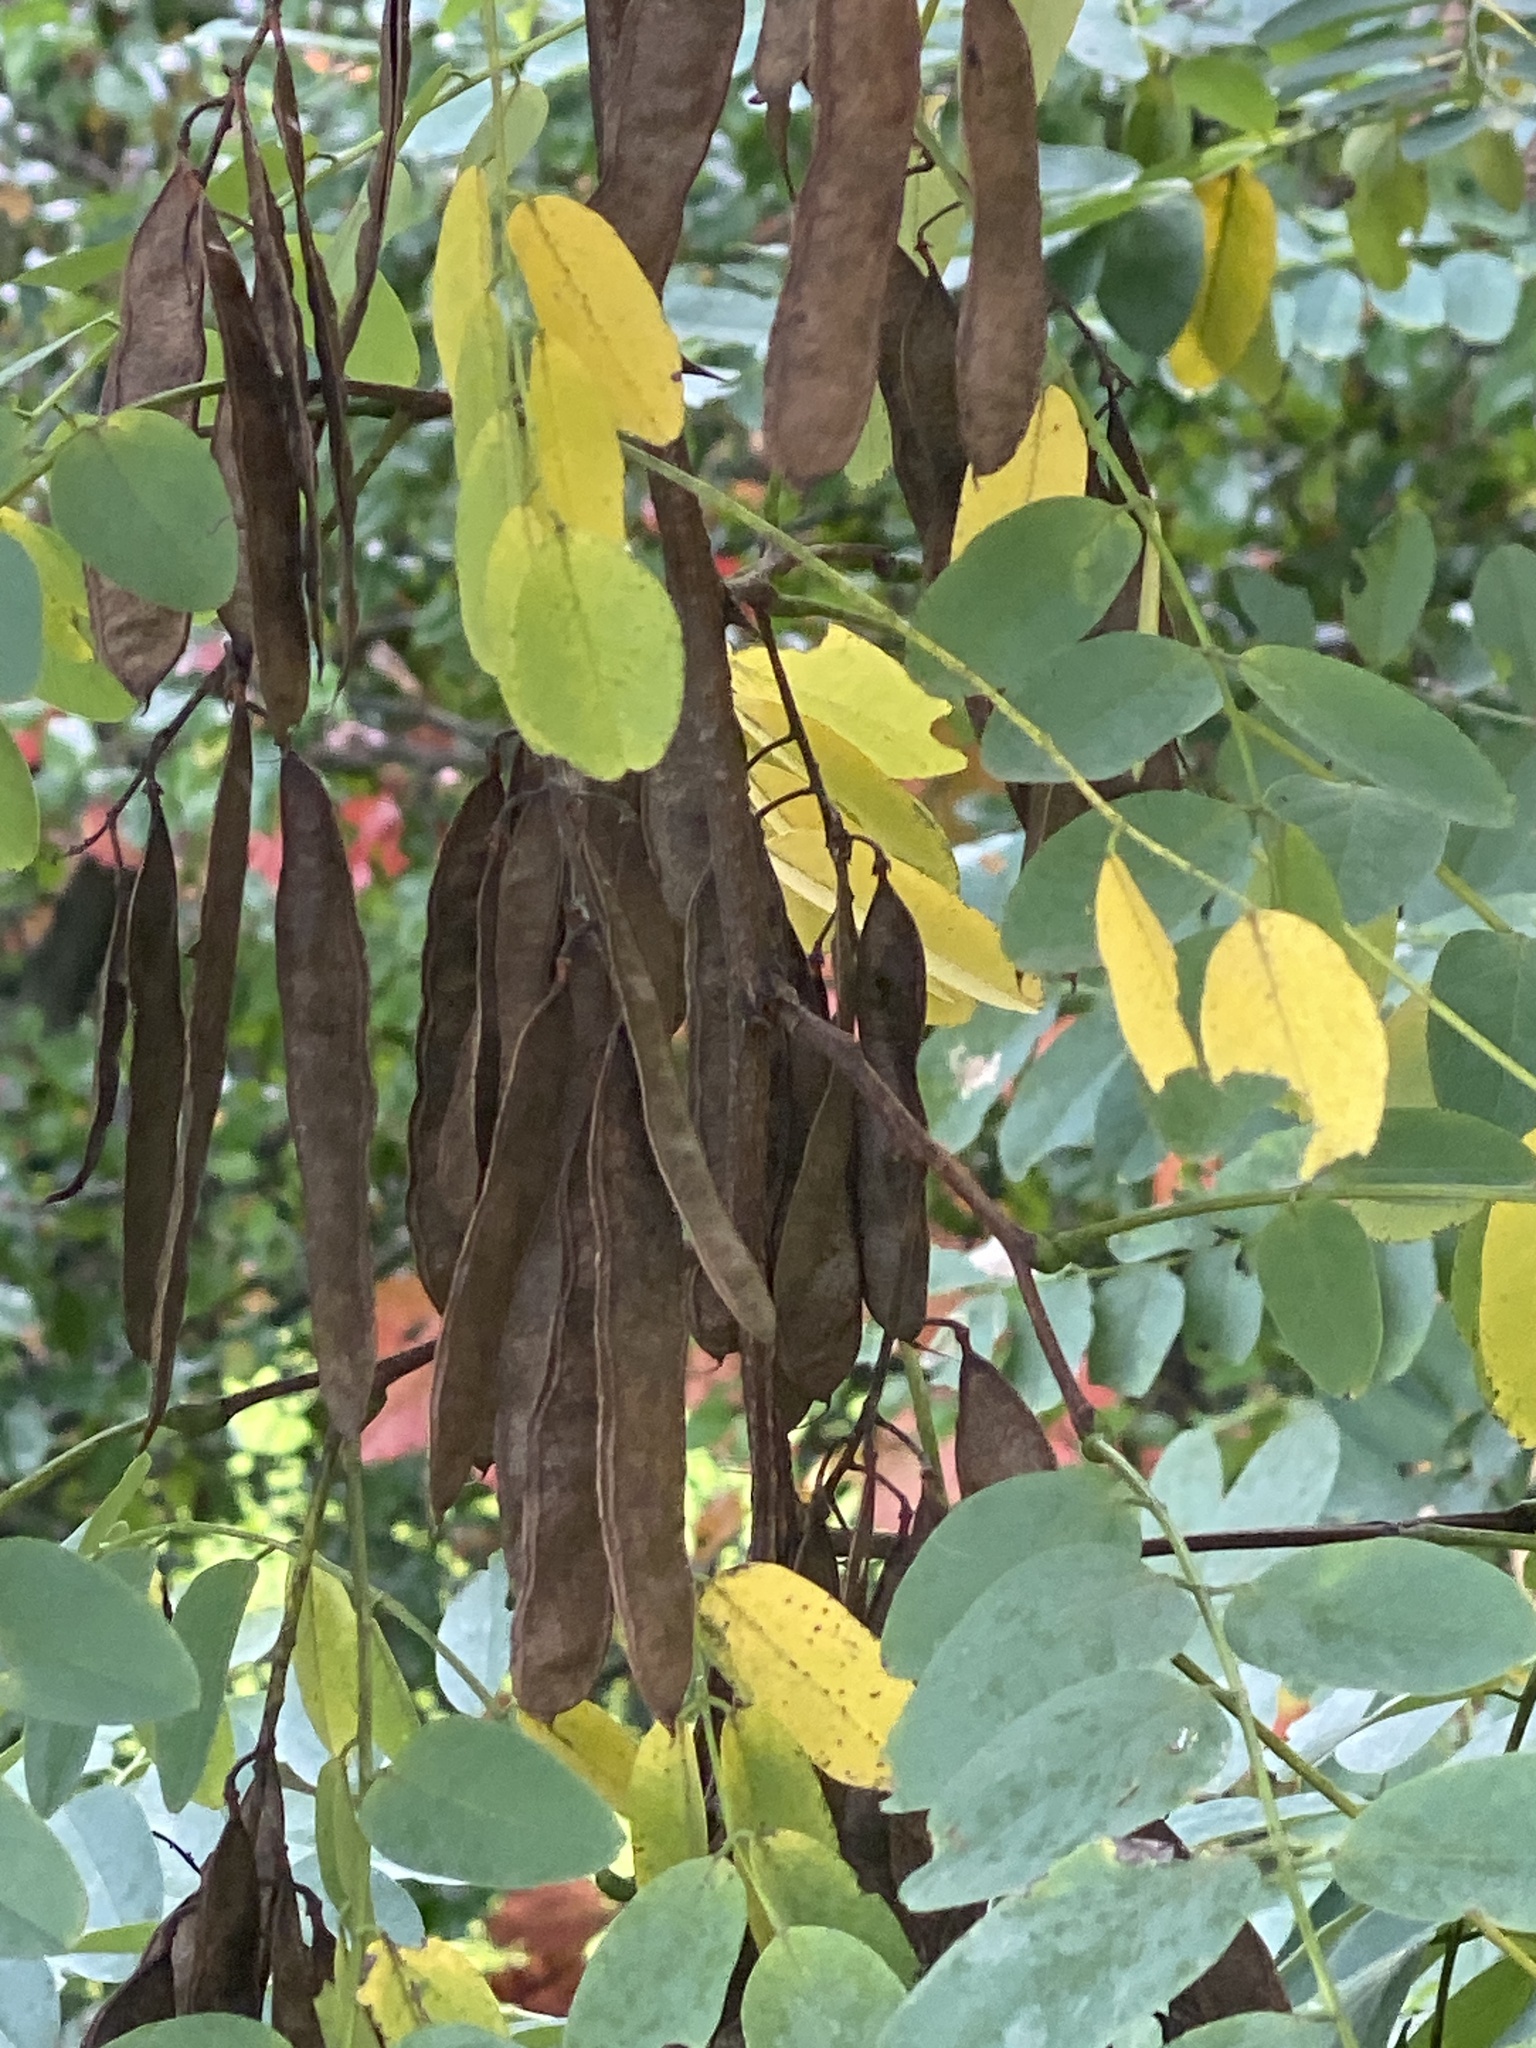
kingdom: Plantae
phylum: Tracheophyta
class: Magnoliopsida
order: Fabales
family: Fabaceae
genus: Robinia
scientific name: Robinia pseudoacacia
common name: Black locust
